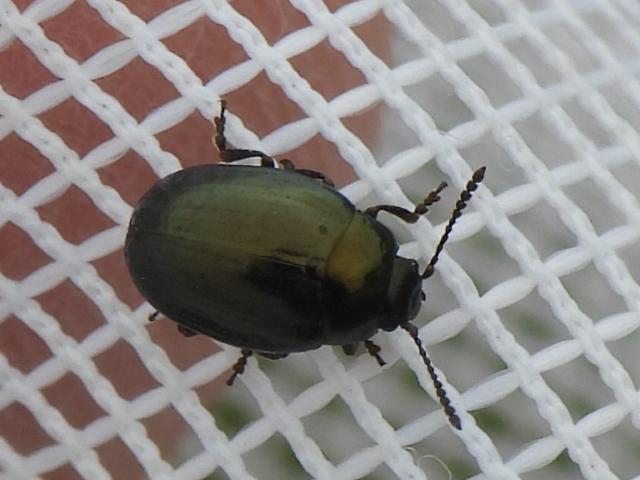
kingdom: Animalia
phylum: Arthropoda
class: Insecta
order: Coleoptera
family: Chrysomelidae
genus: Phaedon
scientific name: Phaedon desotonis
